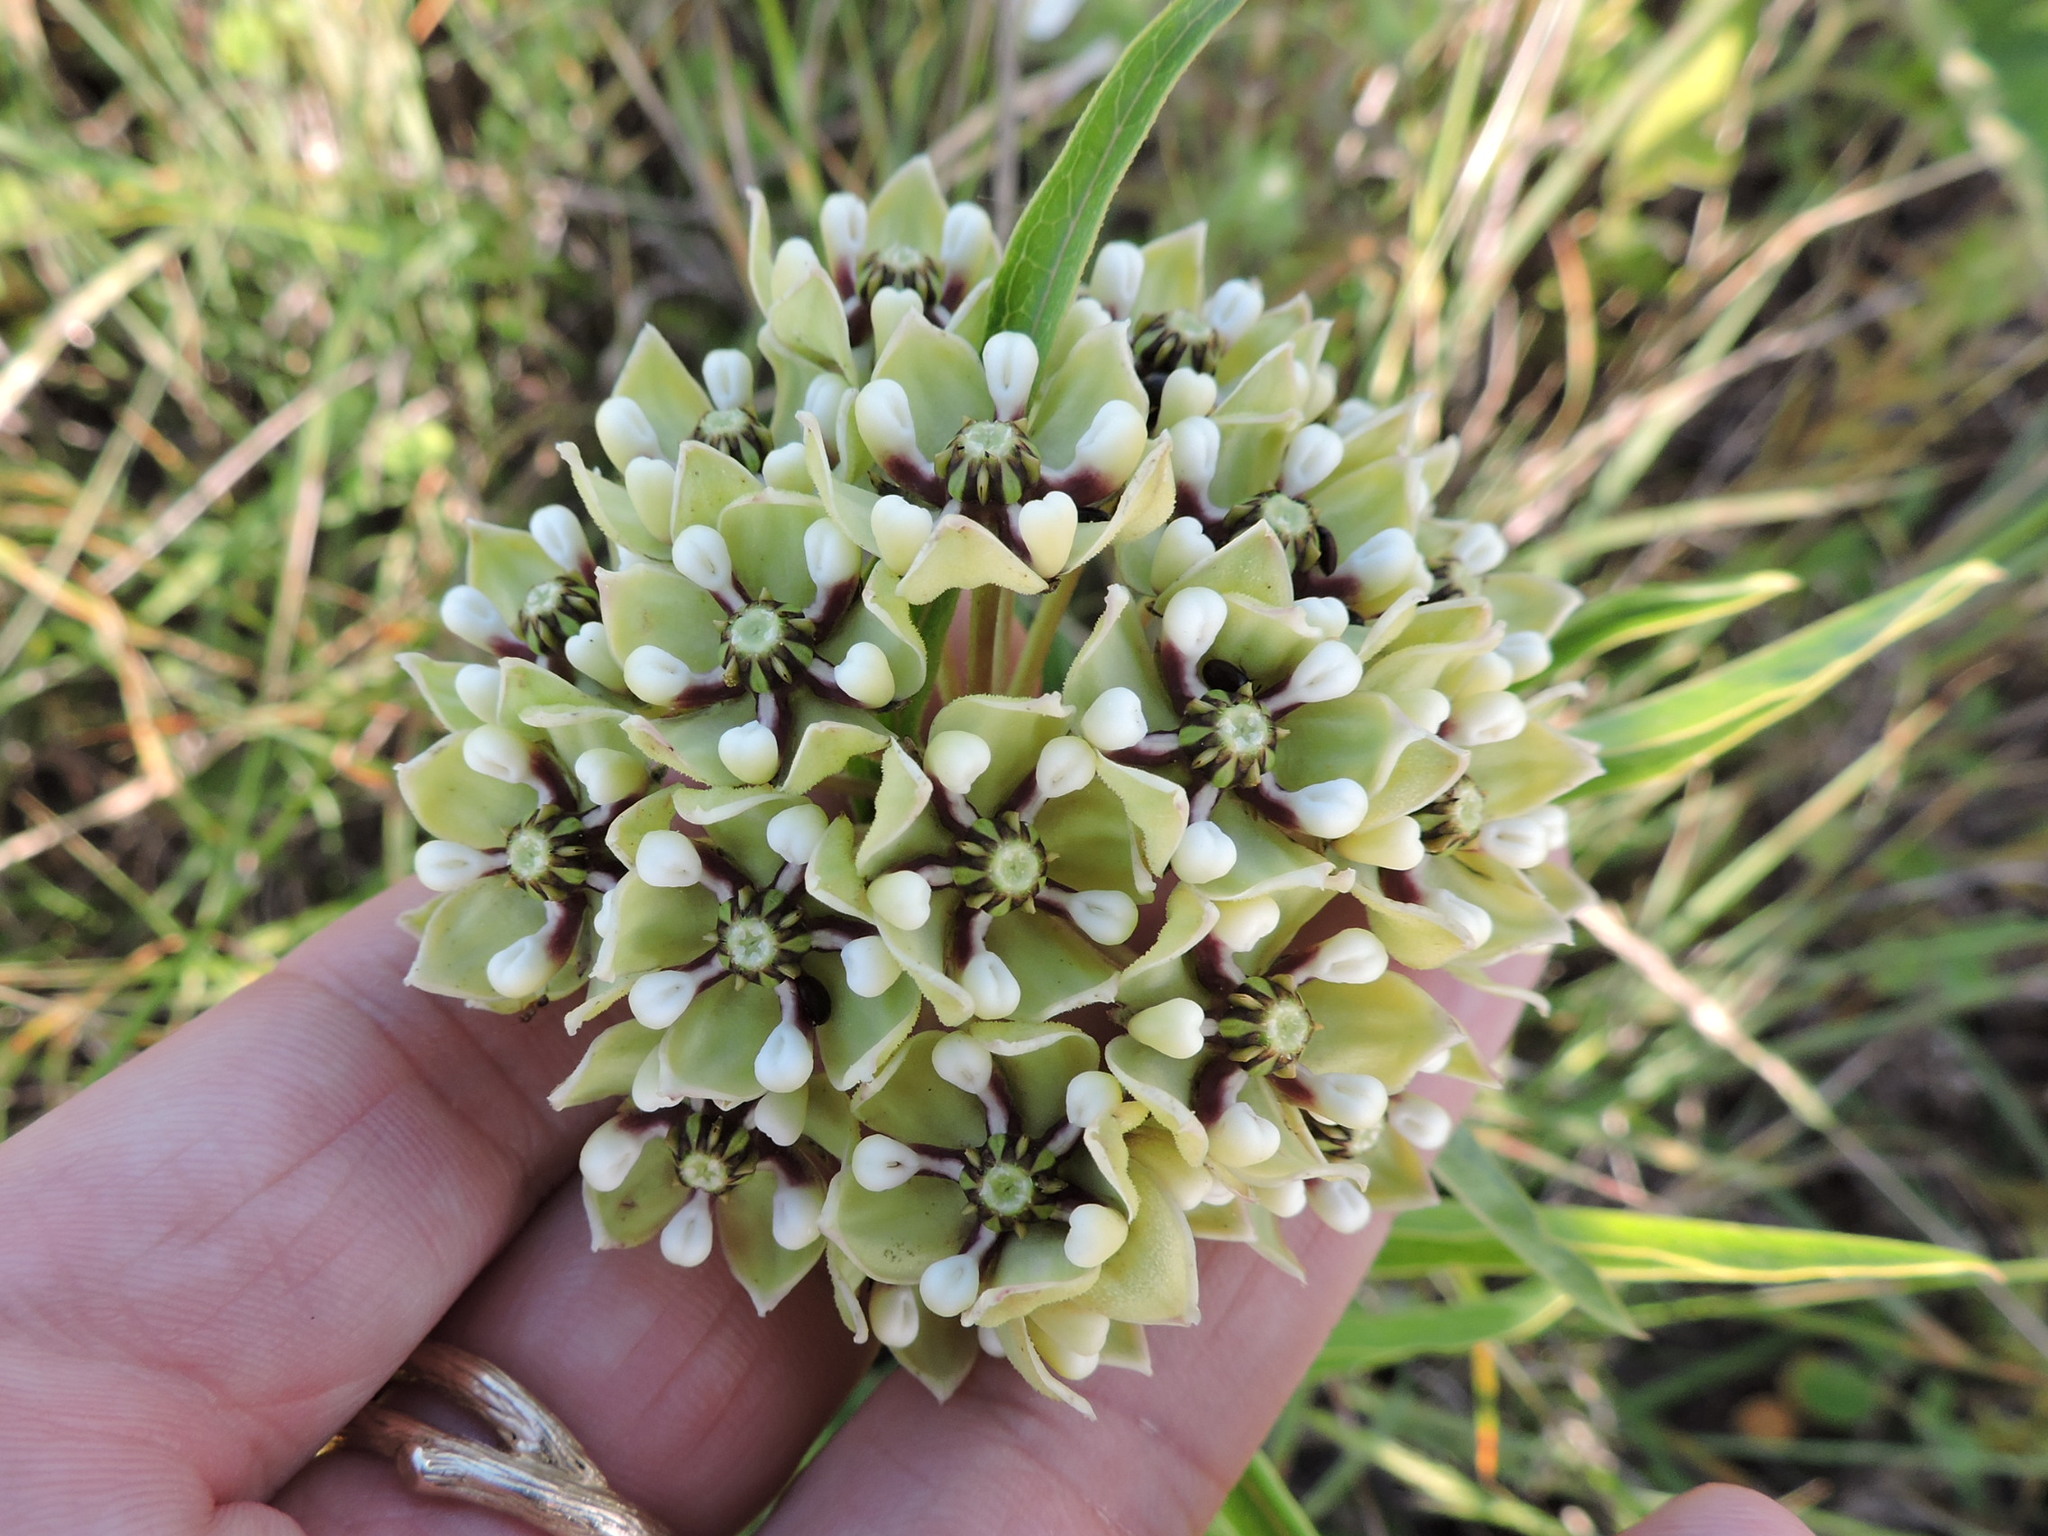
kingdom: Plantae
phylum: Tracheophyta
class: Magnoliopsida
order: Gentianales
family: Apocynaceae
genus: Asclepias
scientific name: Asclepias asperula
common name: Antelope horns
